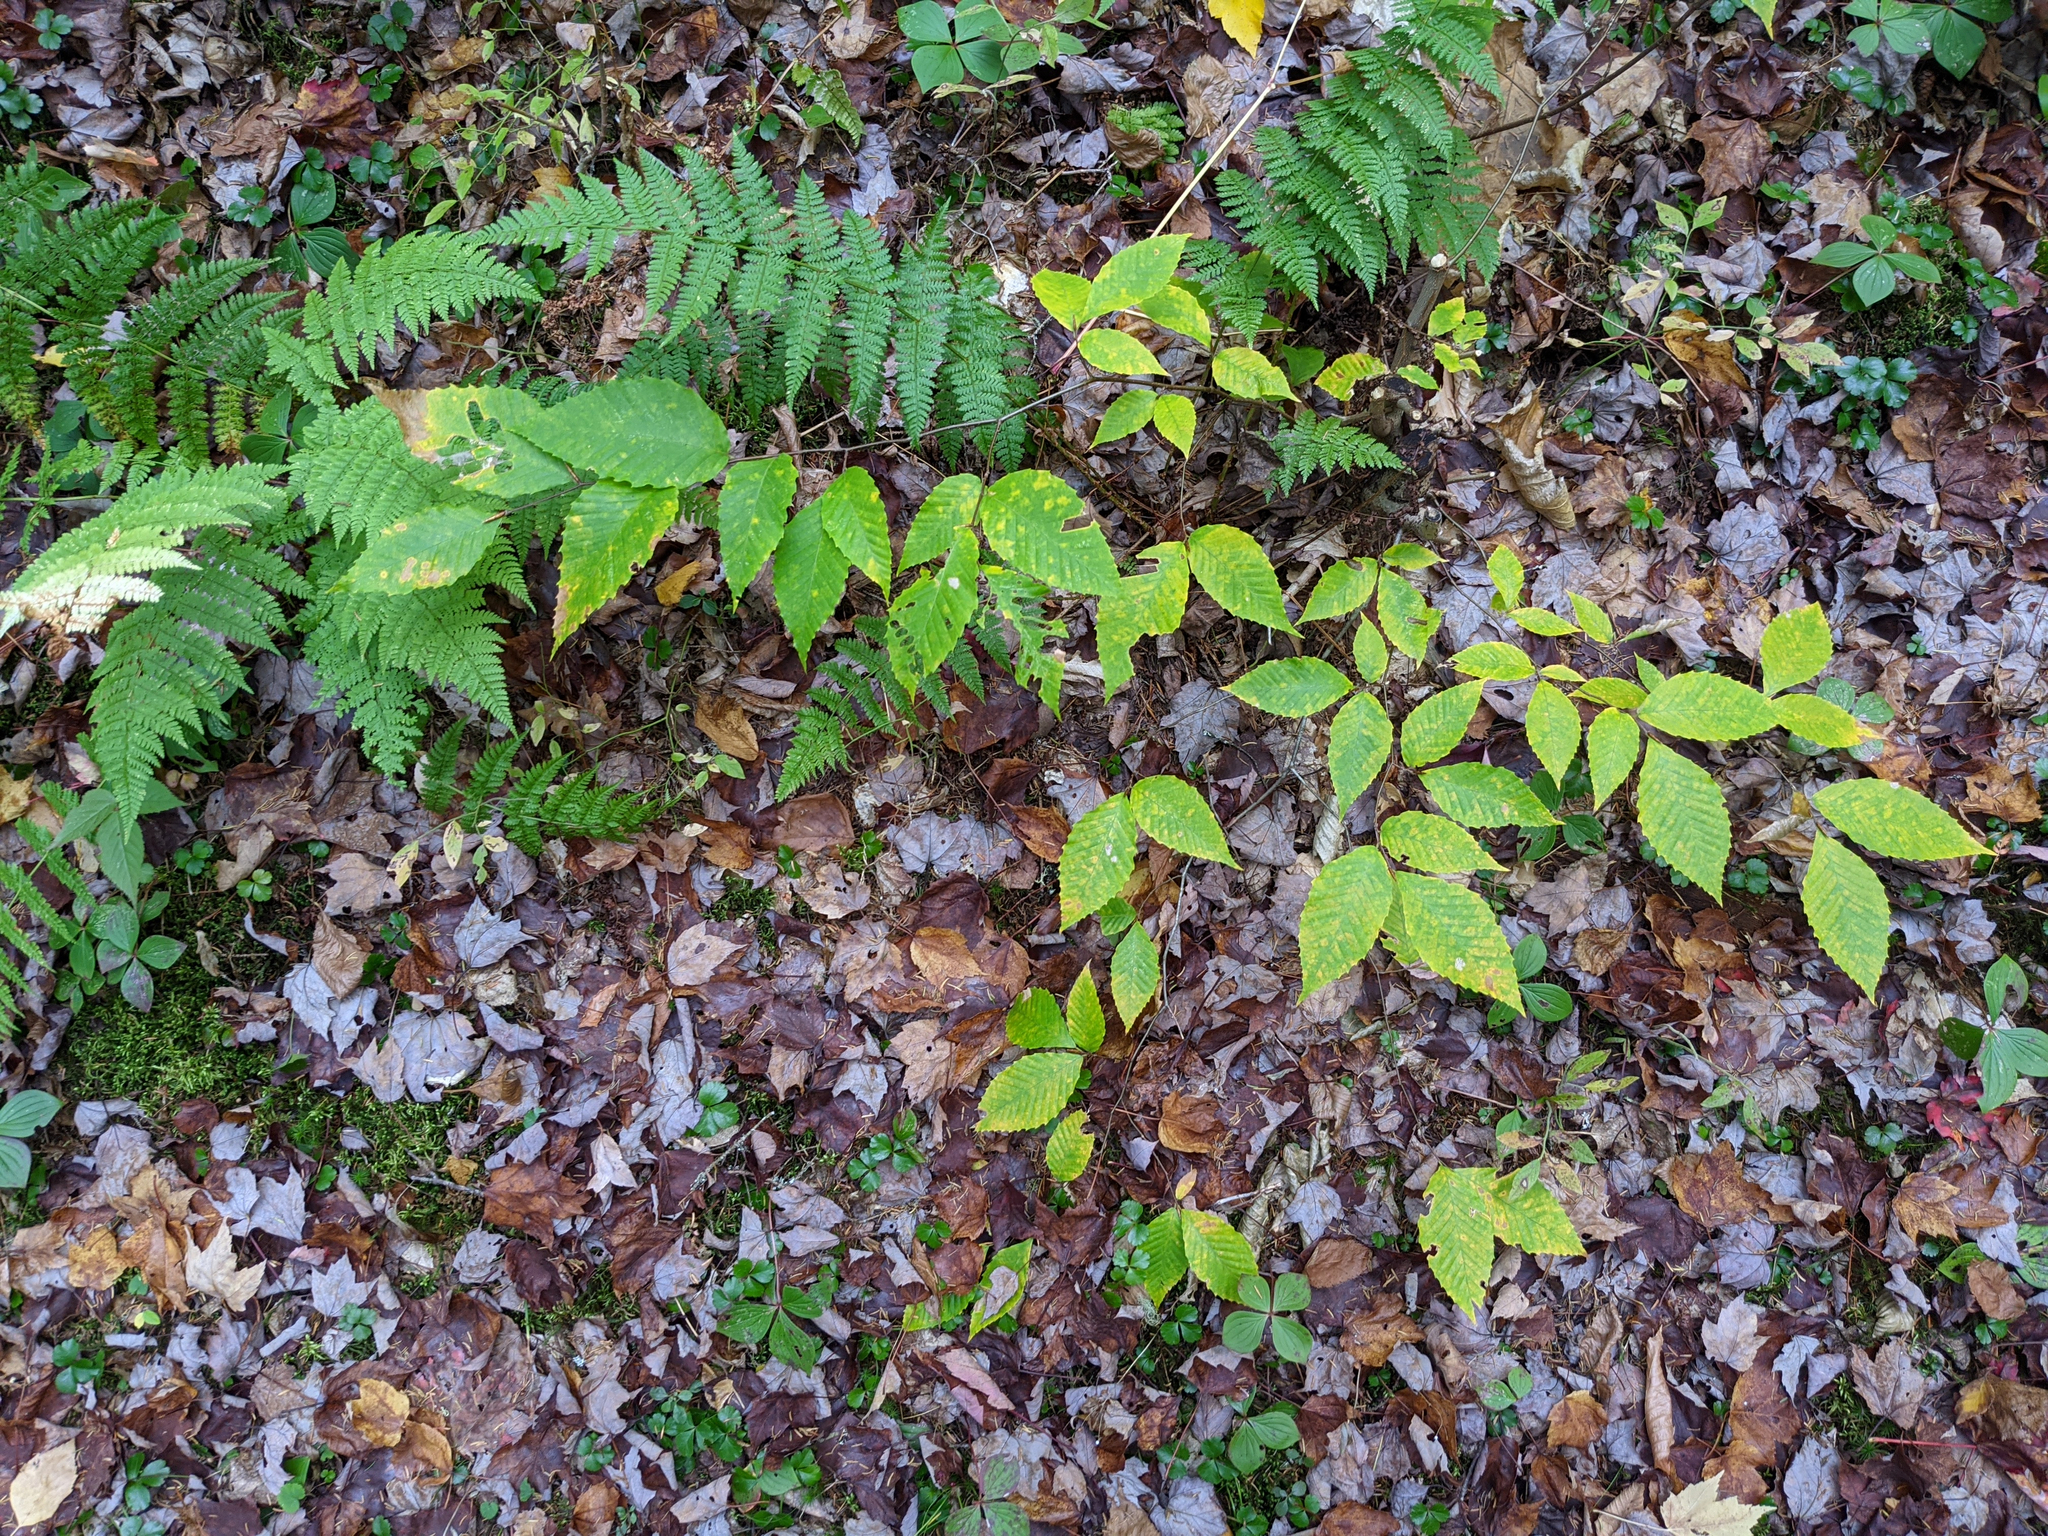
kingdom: Plantae
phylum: Tracheophyta
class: Magnoliopsida
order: Fagales
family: Fagaceae
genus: Fagus
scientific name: Fagus grandifolia
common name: American beech
